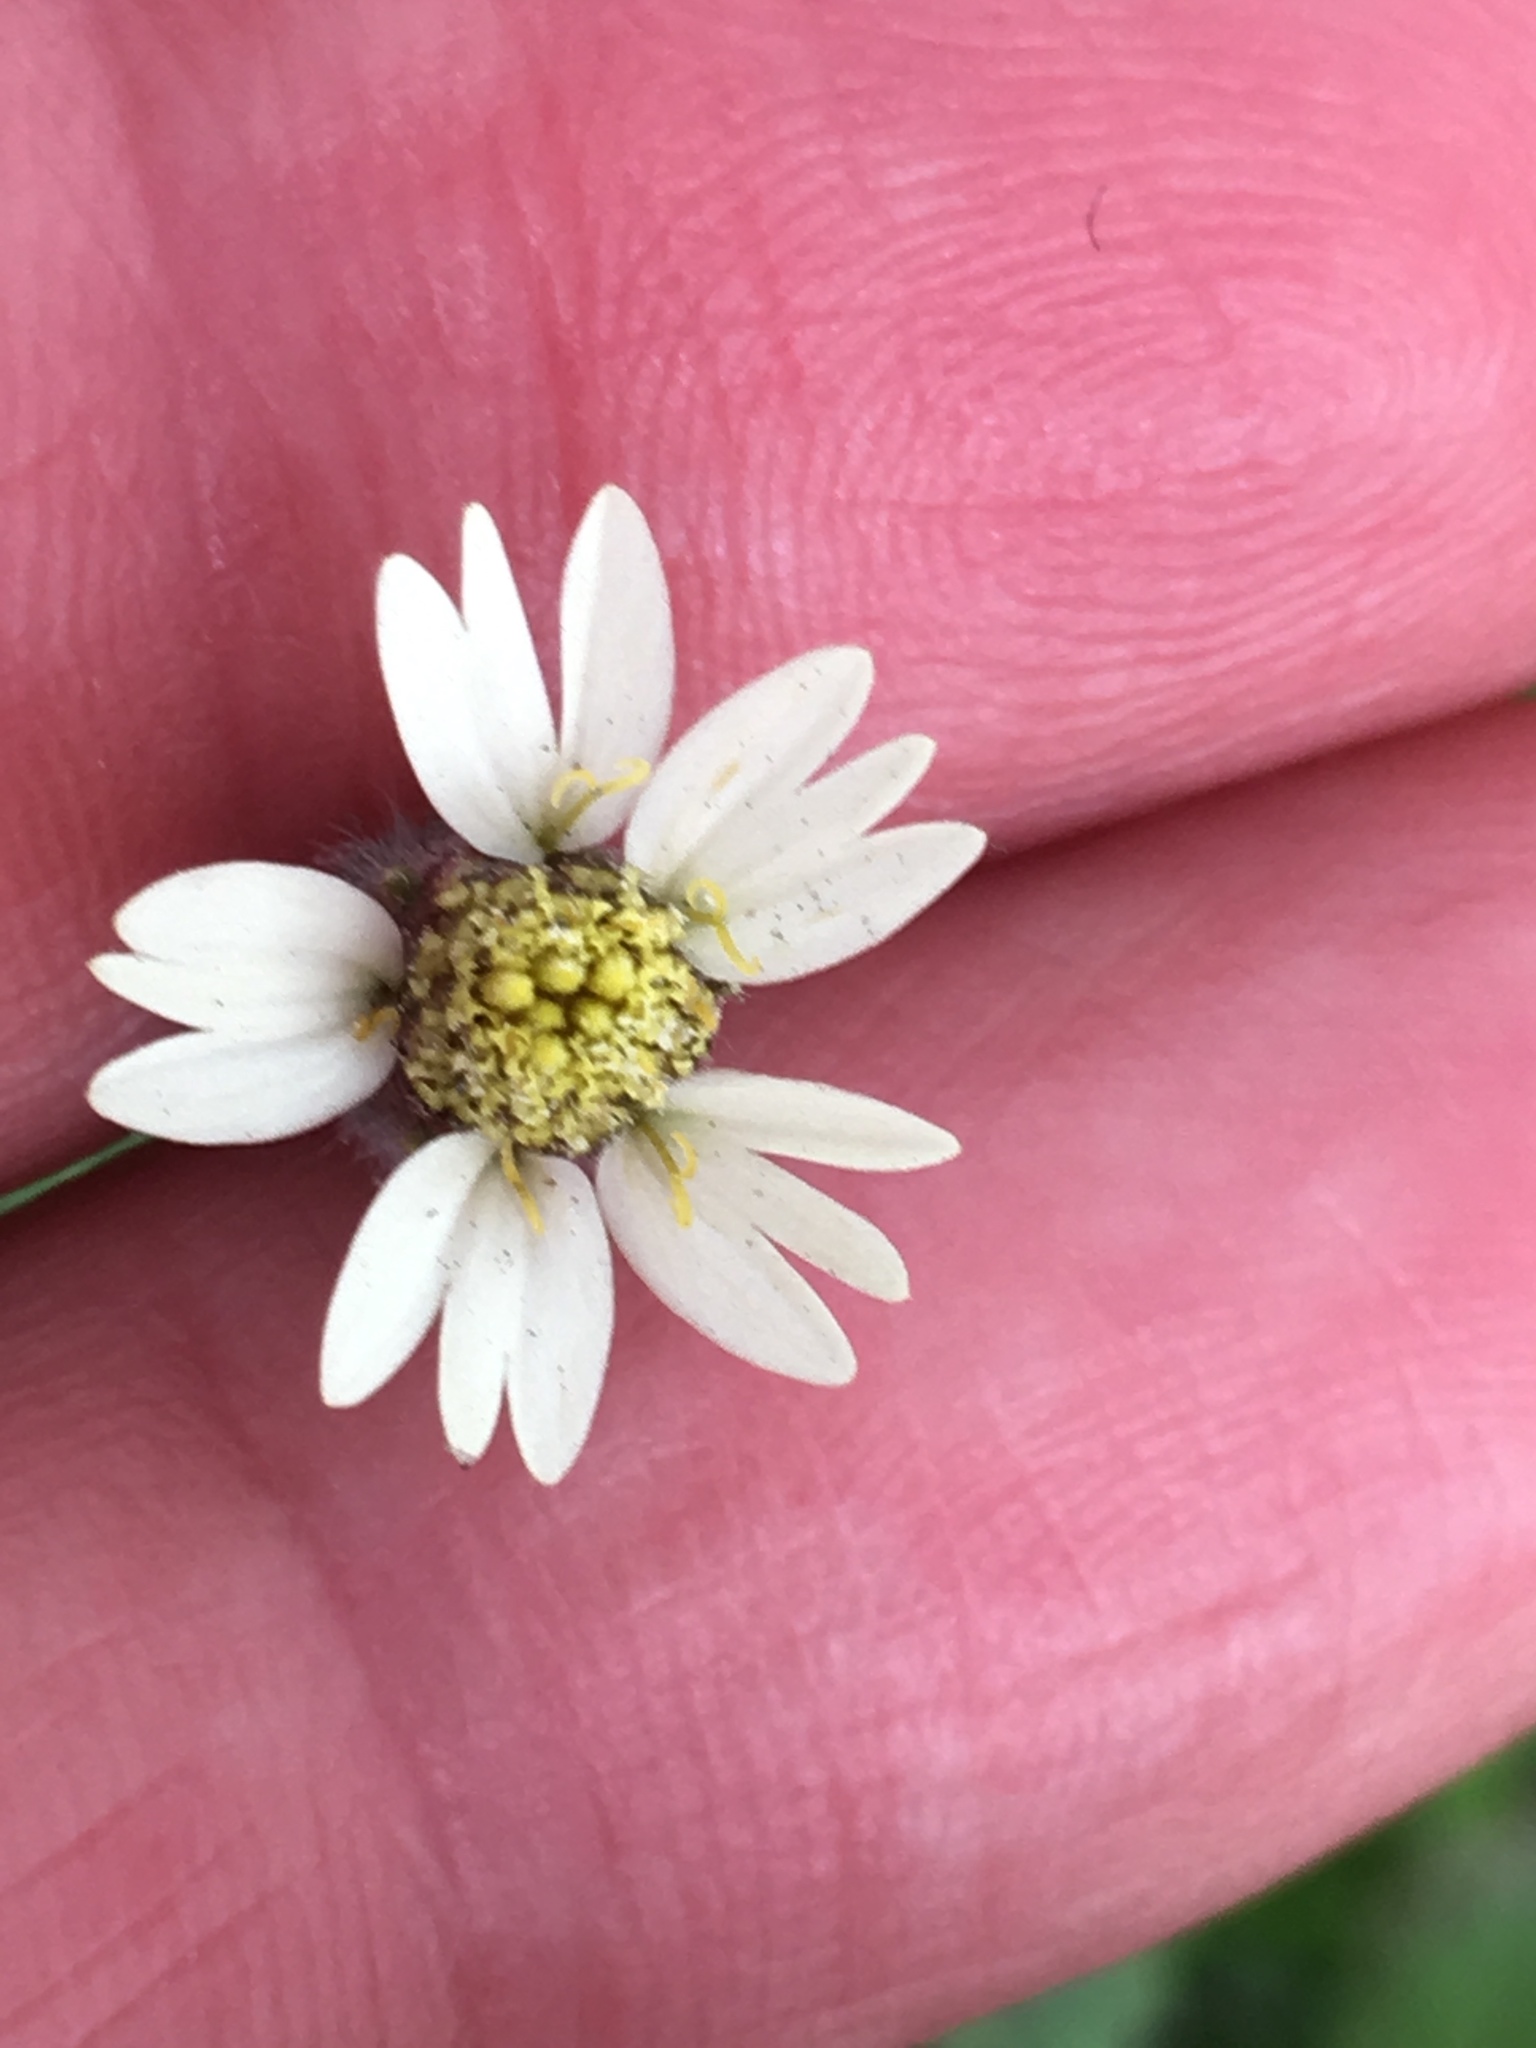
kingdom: Plantae
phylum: Tracheophyta
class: Magnoliopsida
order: Asterales
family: Asteraceae
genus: Tridax
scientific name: Tridax procumbens
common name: Coatbuttons
